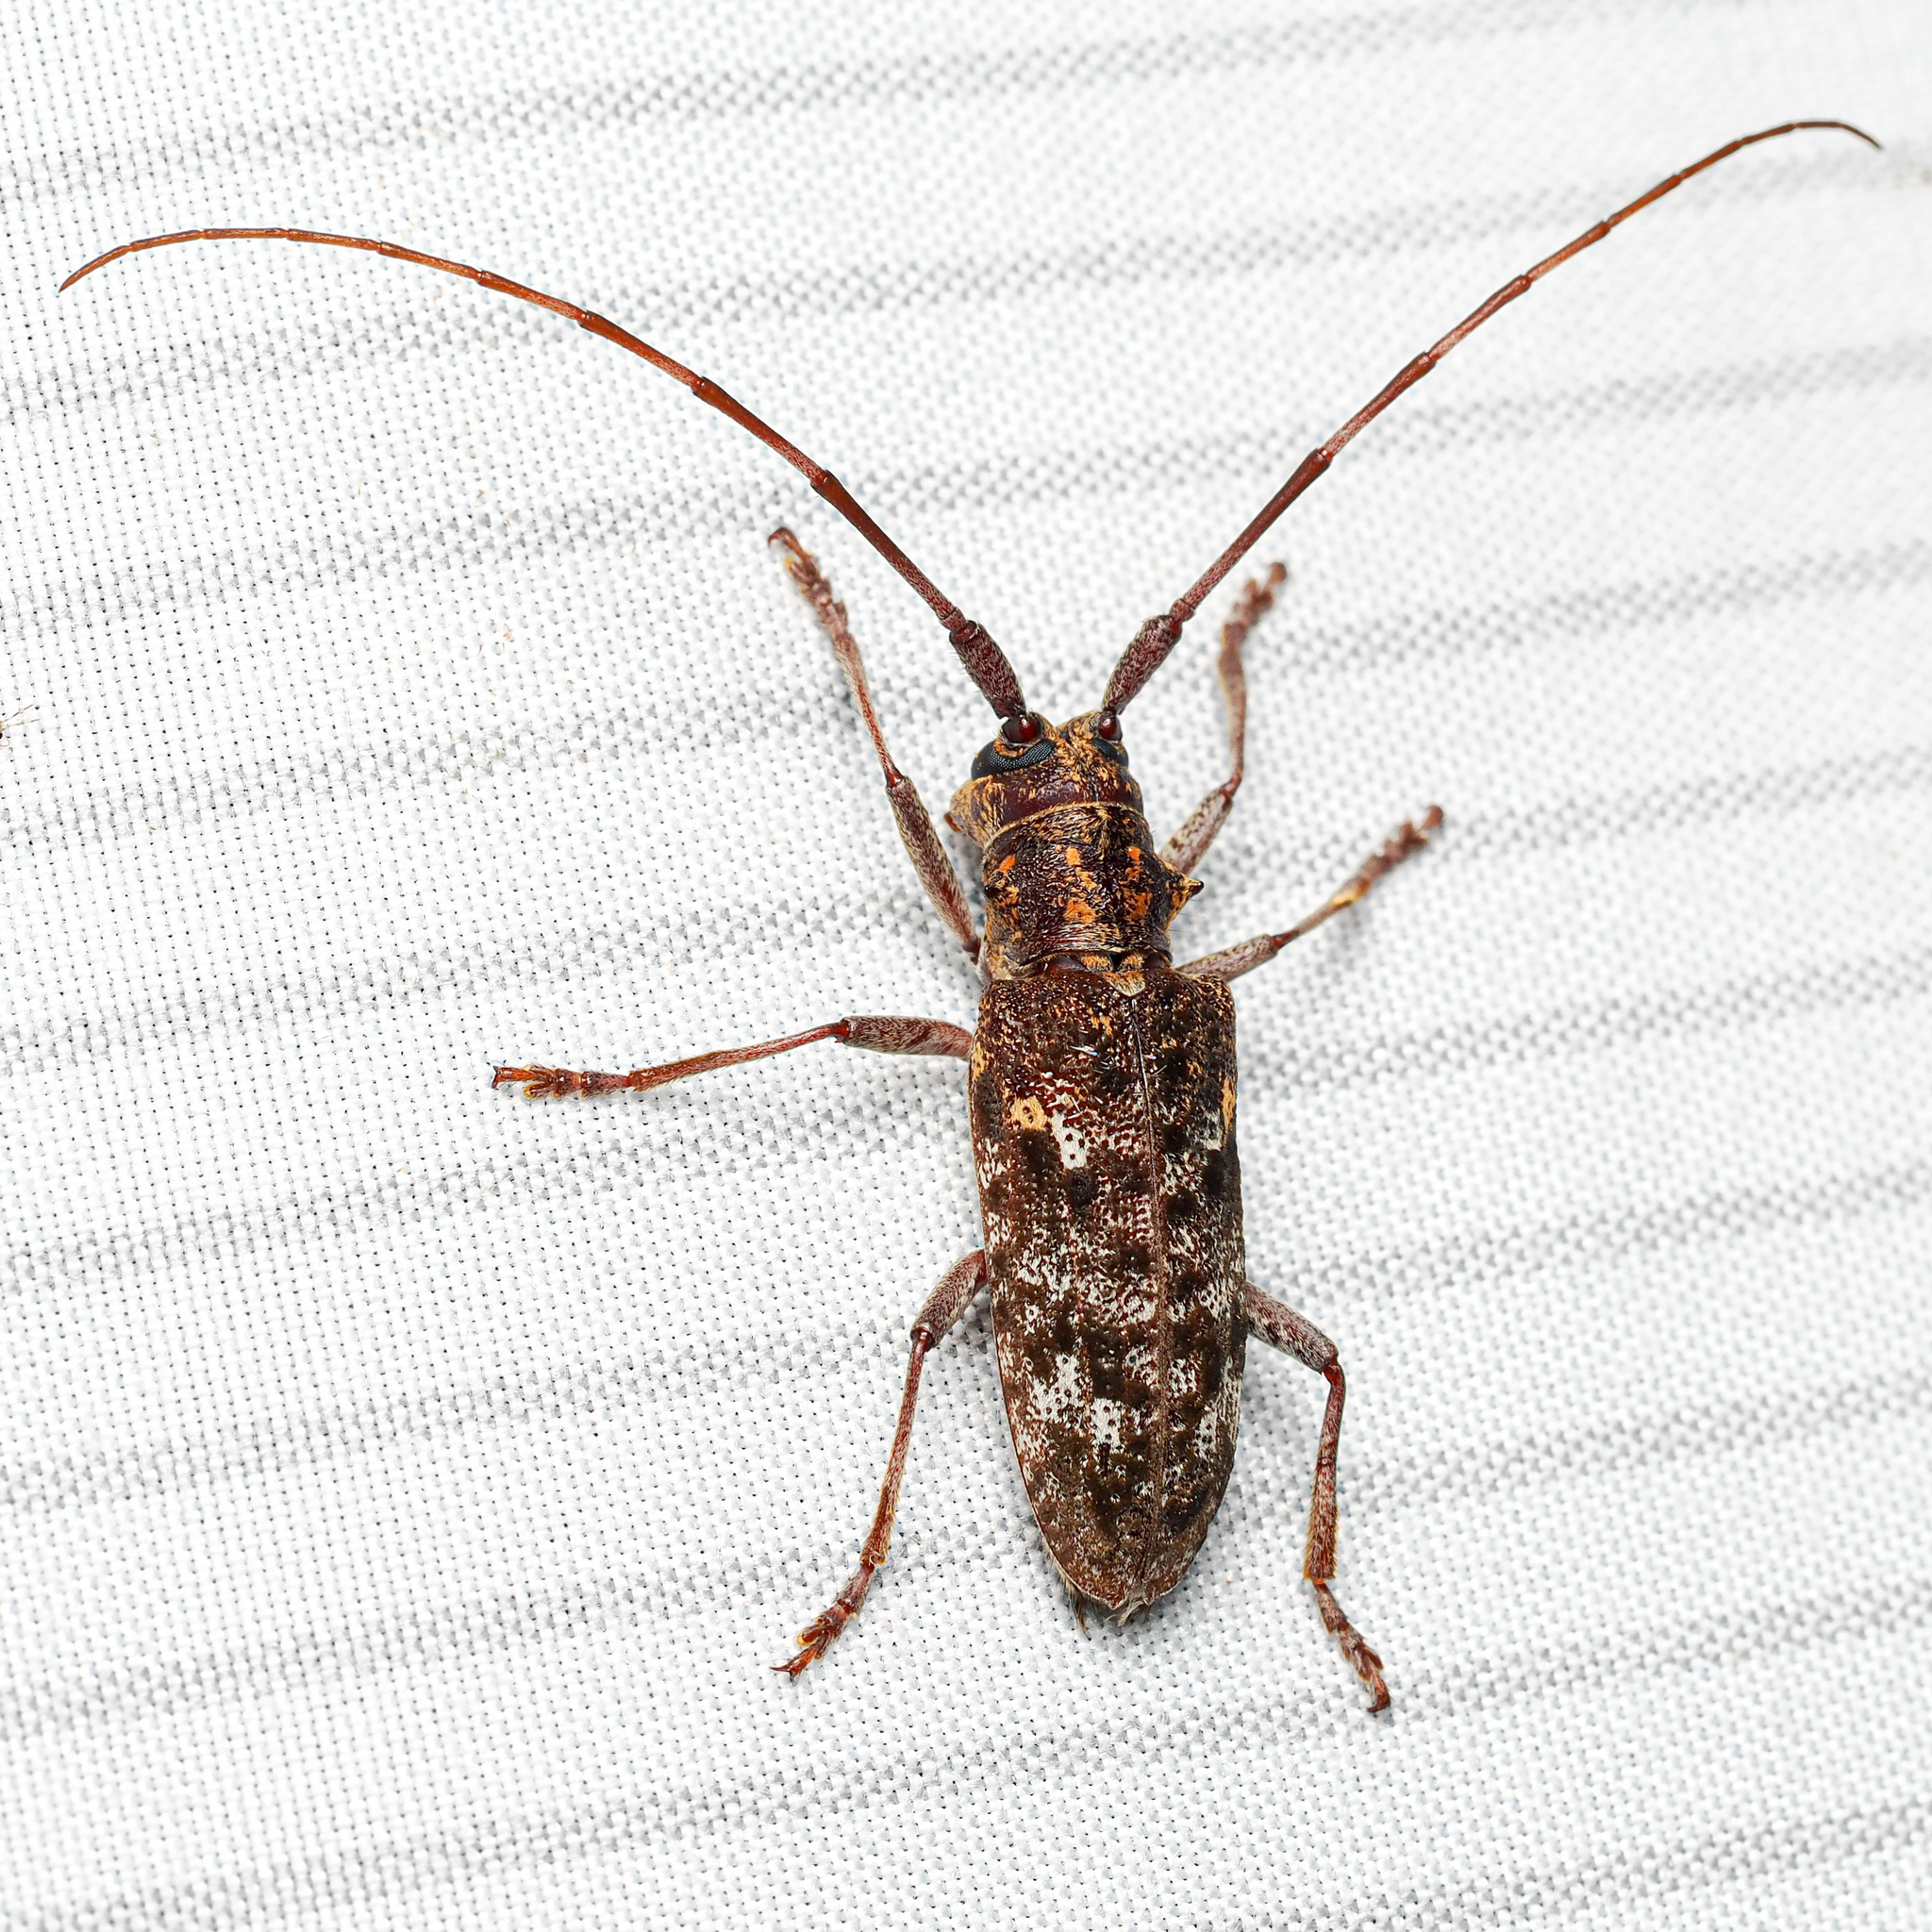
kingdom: Animalia
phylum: Arthropoda
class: Insecta
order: Coleoptera
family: Cerambycidae
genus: Monochamus
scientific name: Monochamus carolinensis
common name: Carolina pine sawyer
